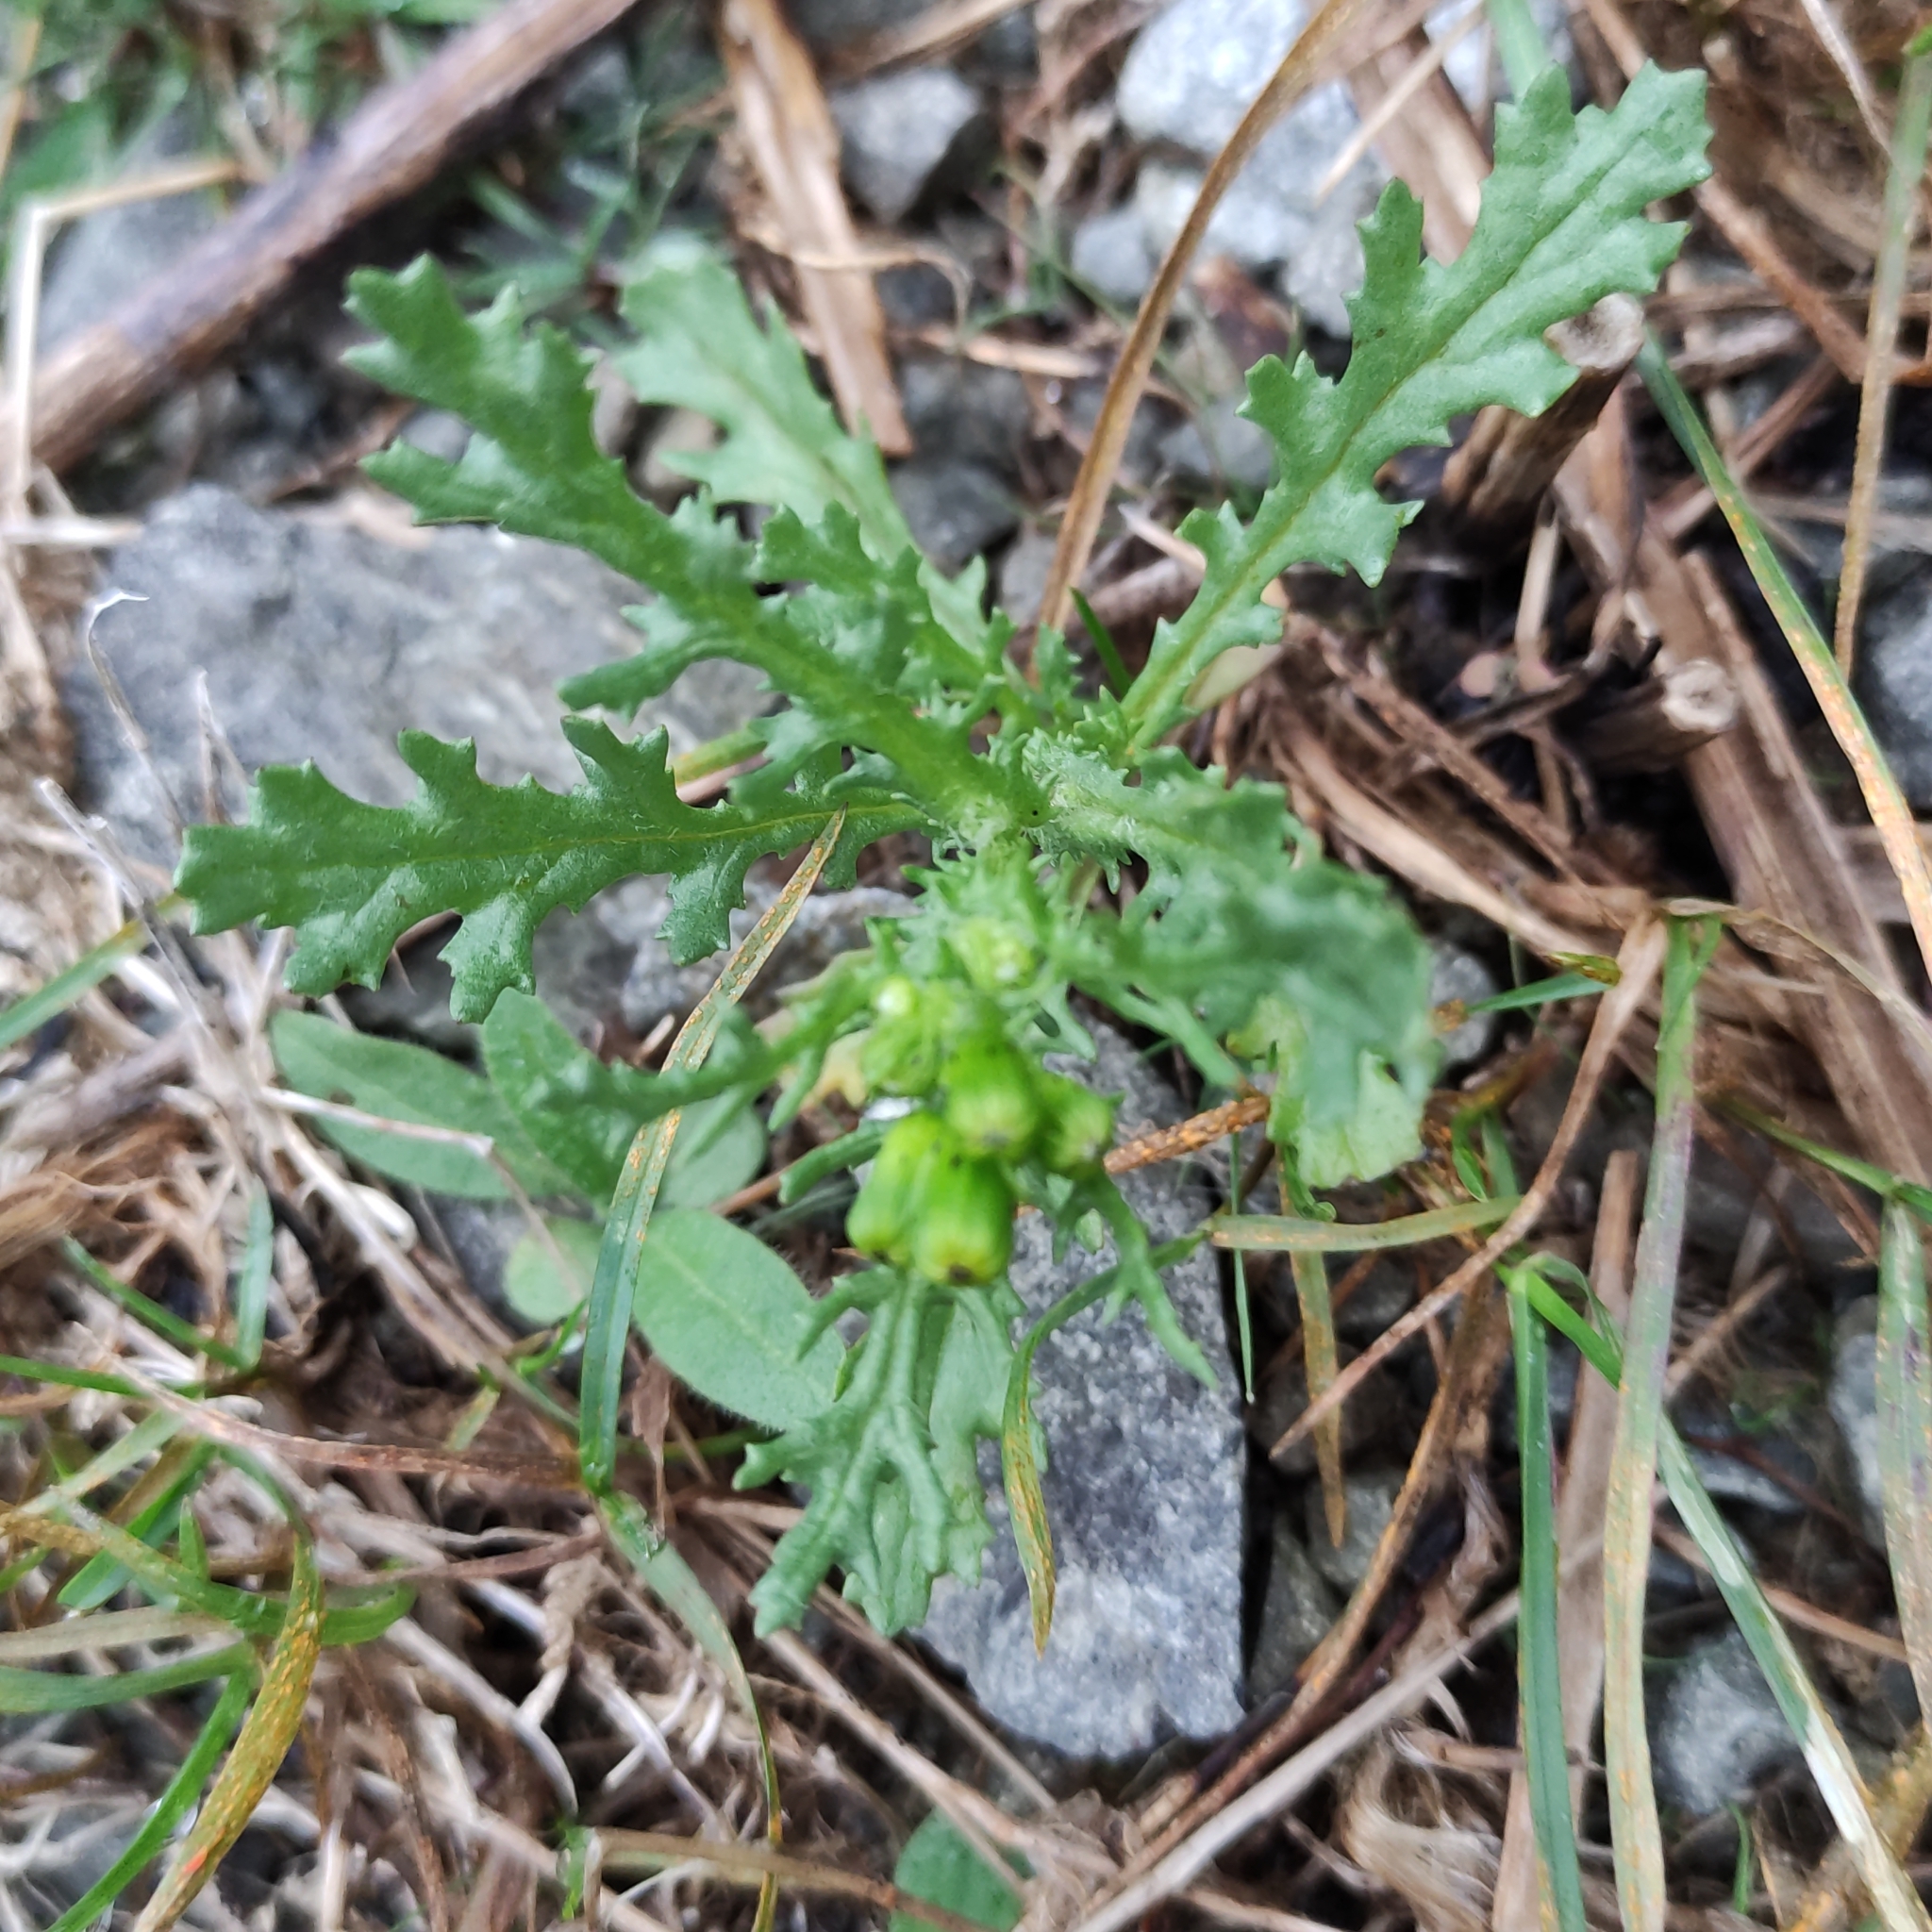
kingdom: Plantae
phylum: Tracheophyta
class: Magnoliopsida
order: Asterales
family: Asteraceae
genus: Senecio
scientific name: Senecio vulgaris
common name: Old-man-in-the-spring
